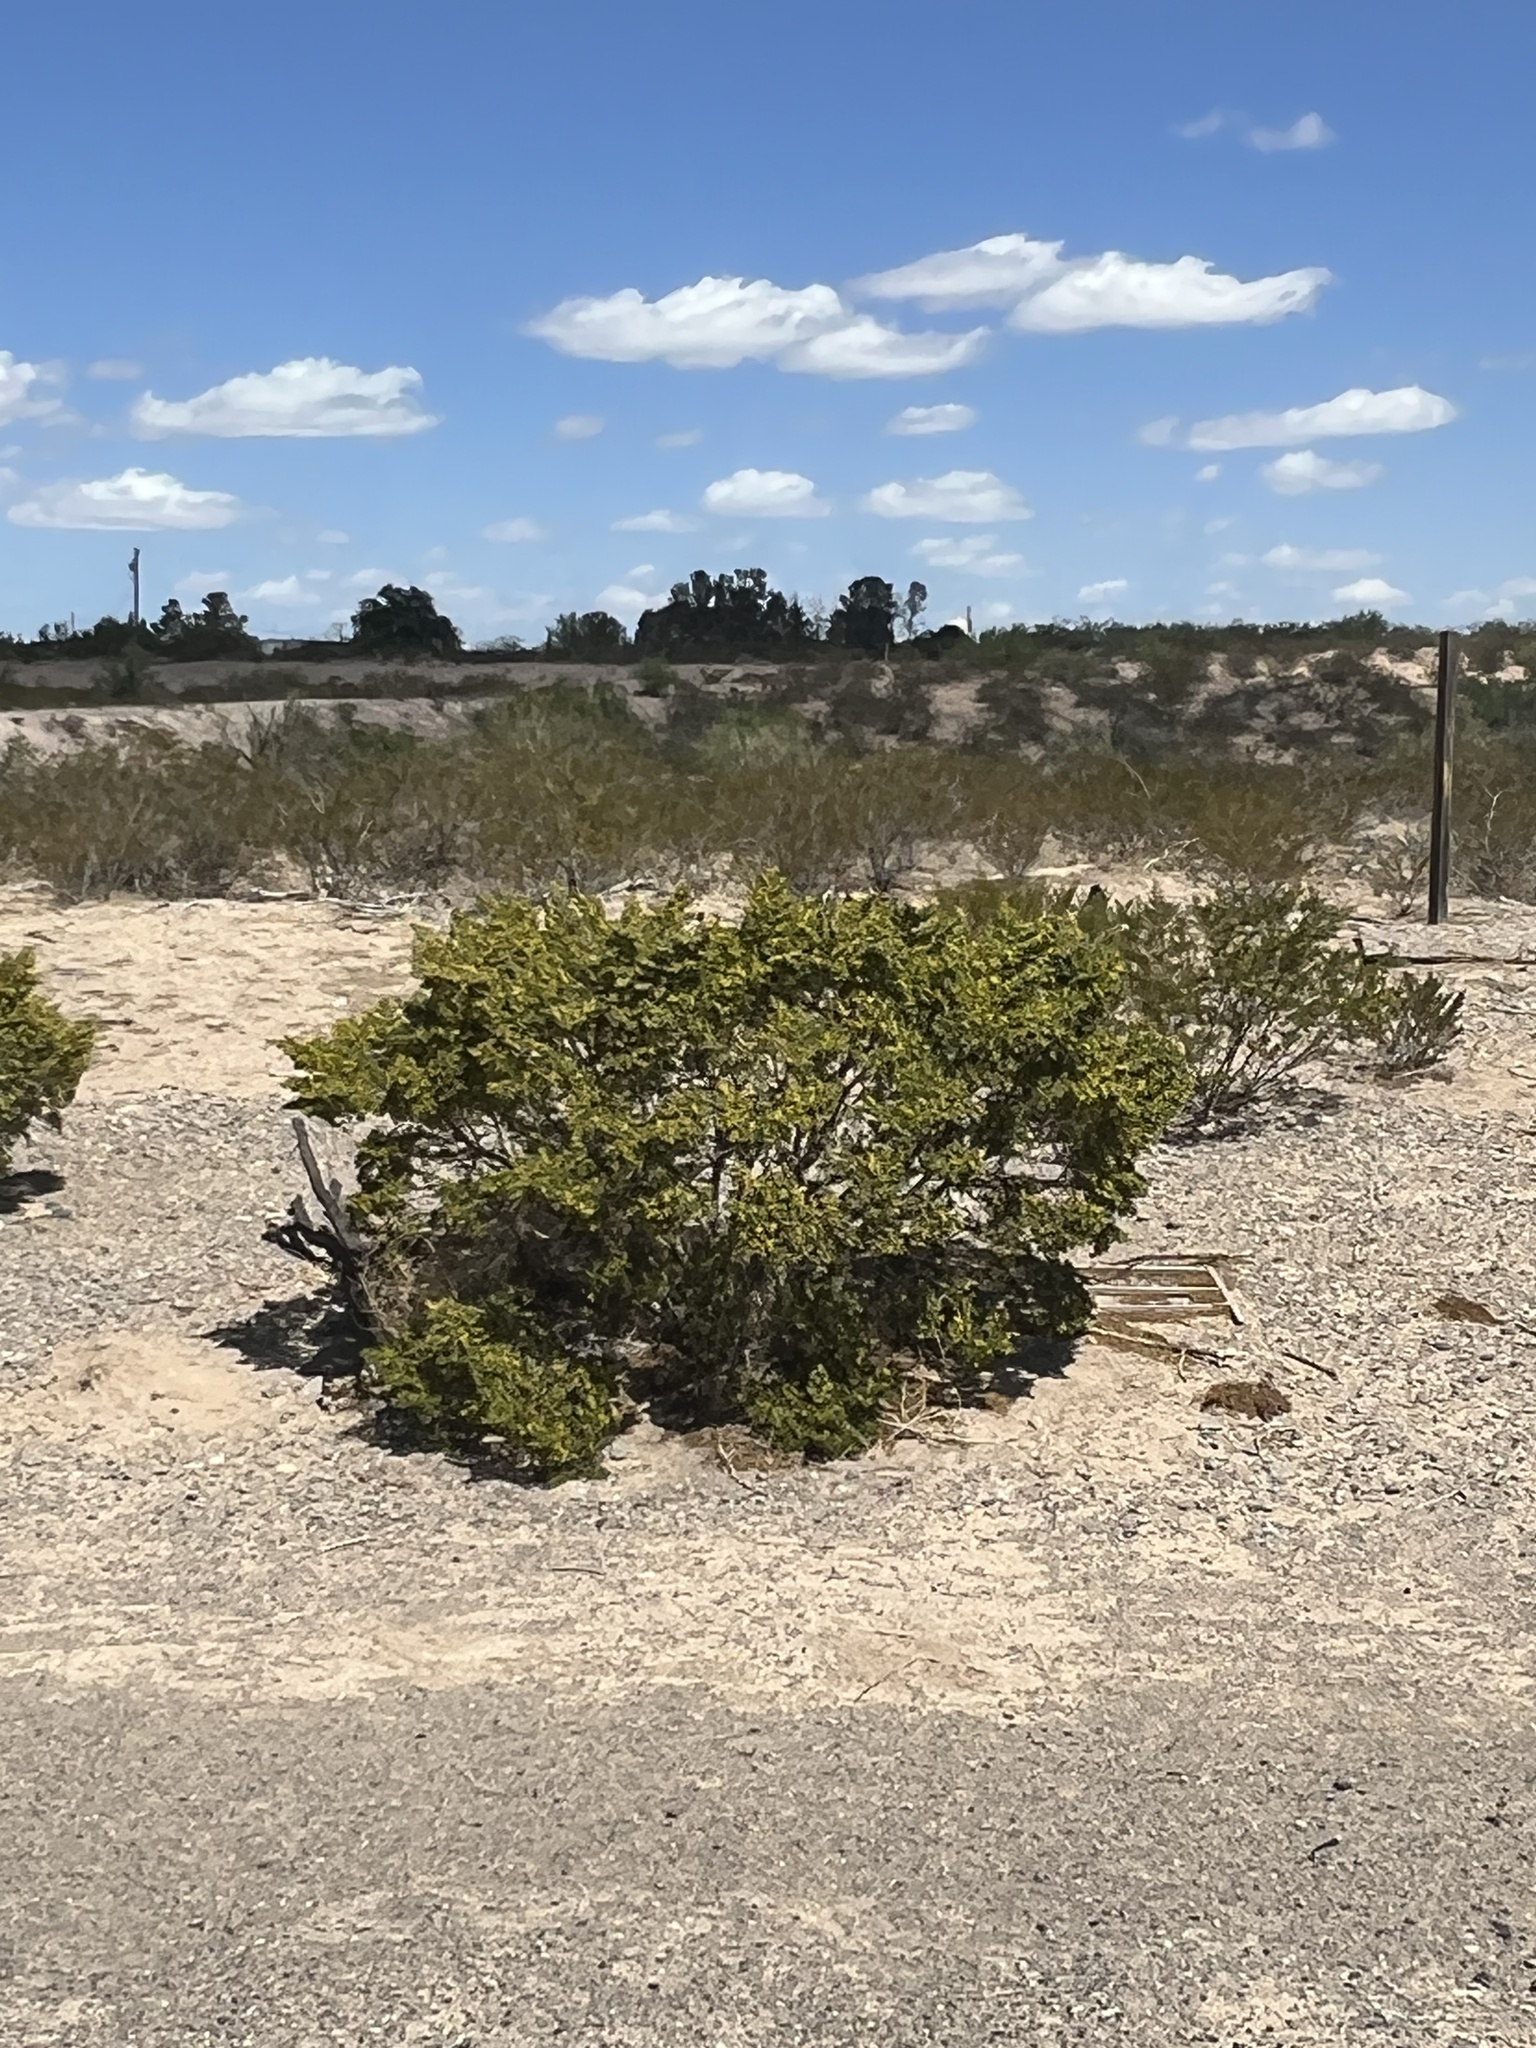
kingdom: Plantae
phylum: Tracheophyta
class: Magnoliopsida
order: Zygophyllales
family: Zygophyllaceae
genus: Larrea
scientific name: Larrea tridentata
